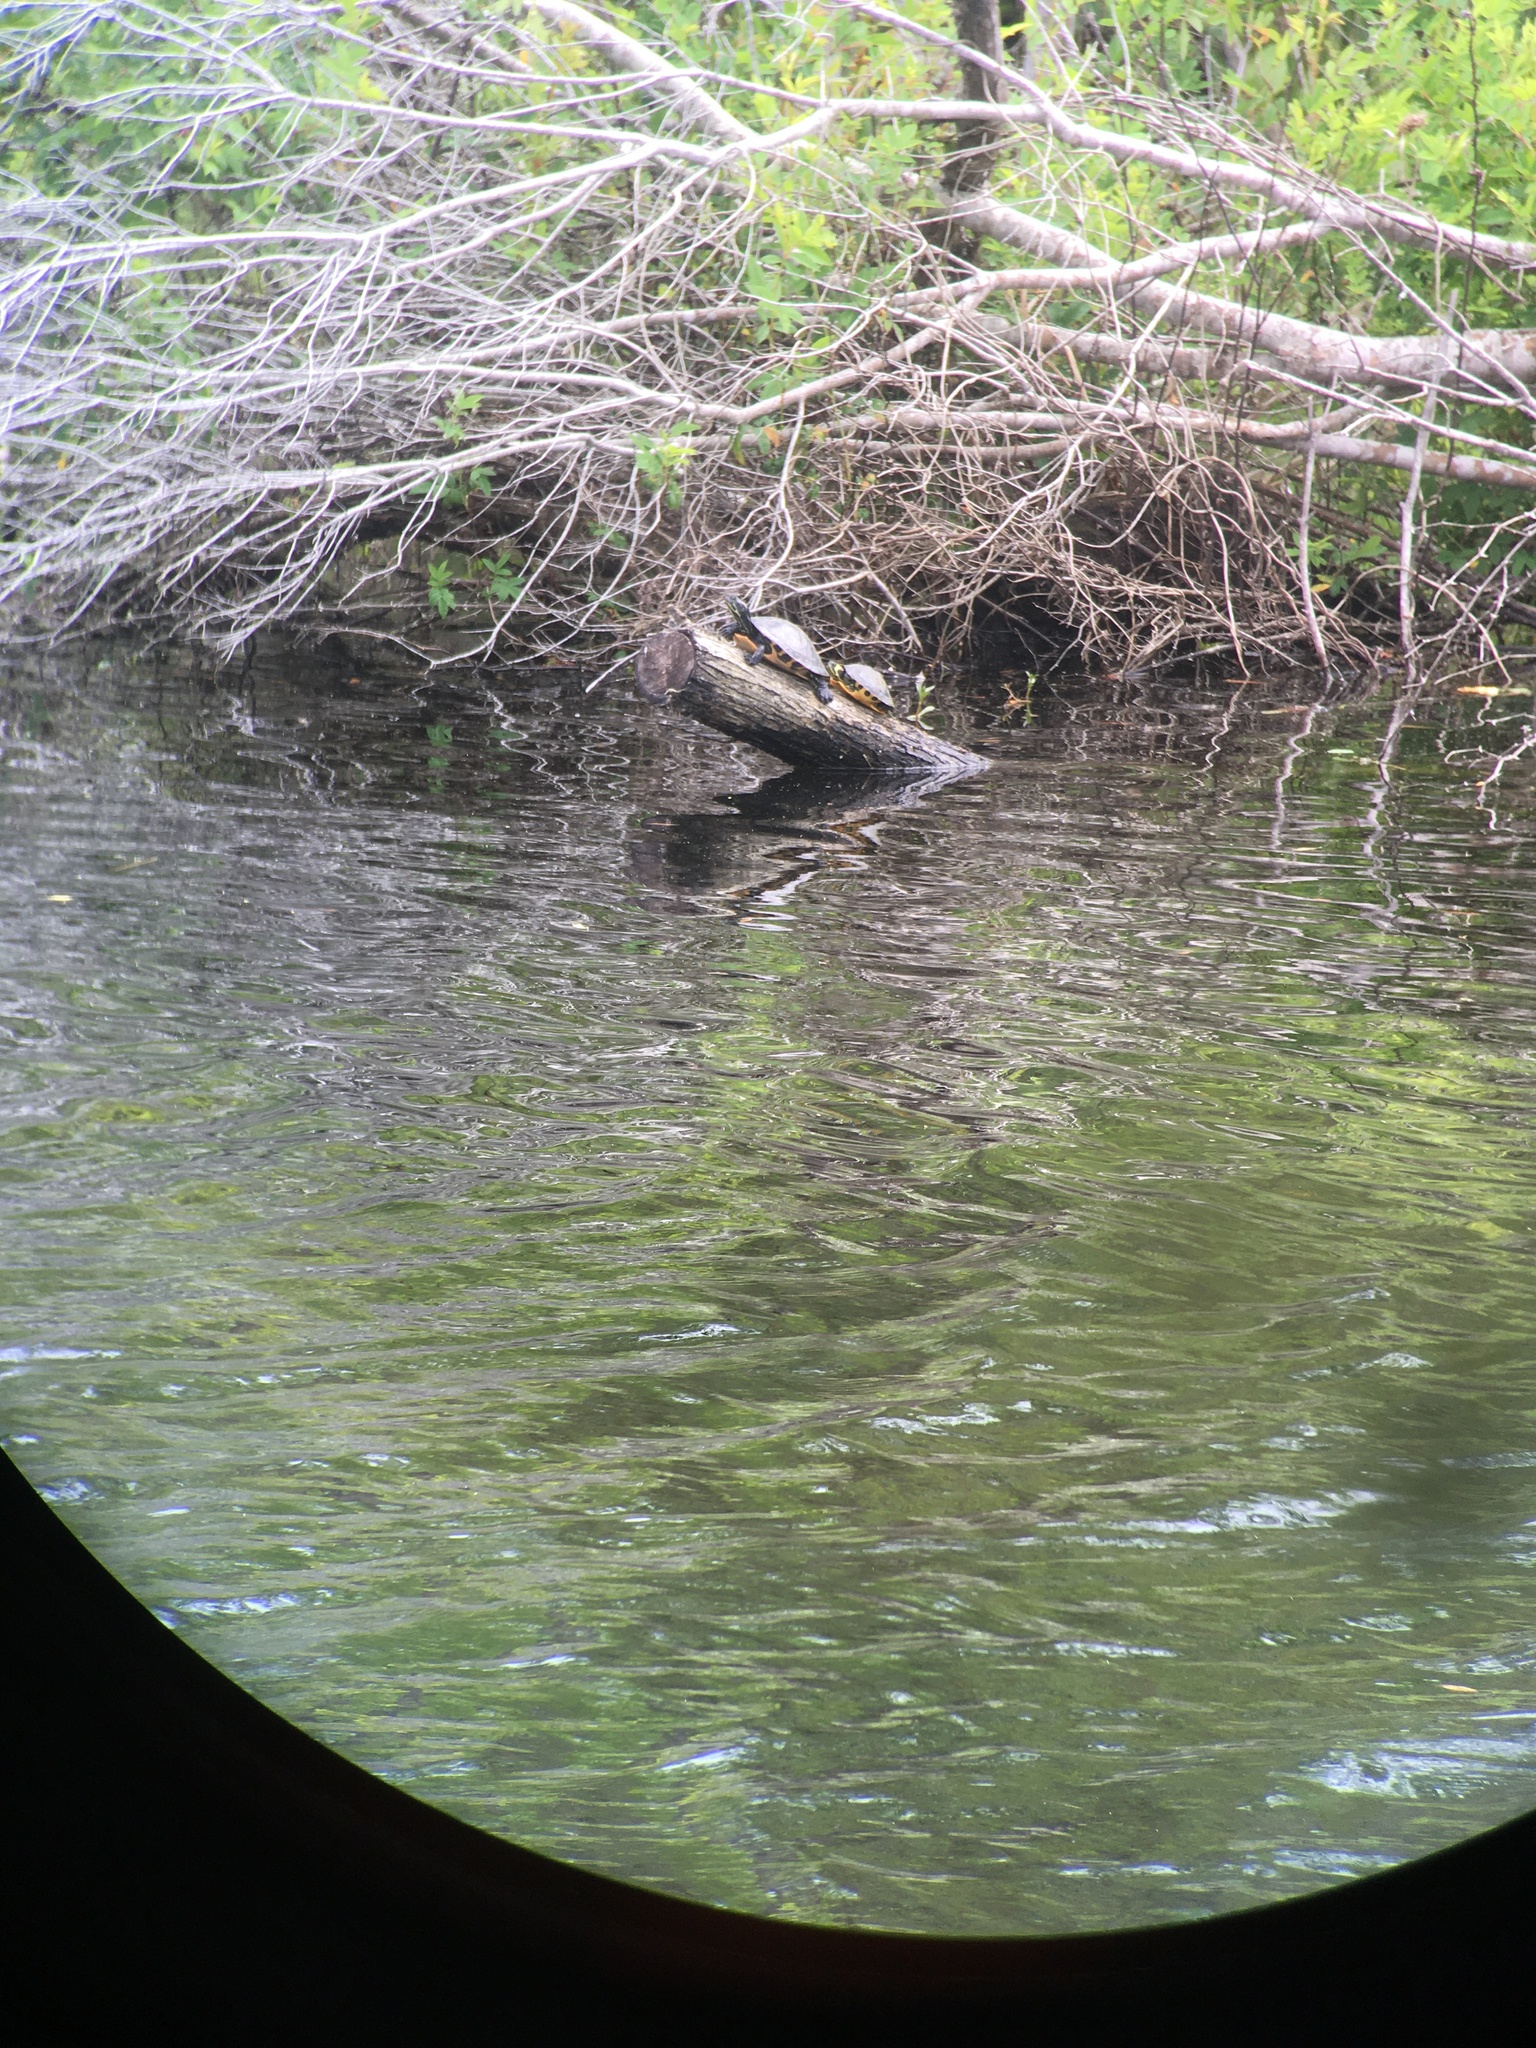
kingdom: Animalia
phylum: Chordata
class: Testudines
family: Emydidae
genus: Trachemys
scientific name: Trachemys scripta
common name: Slider
